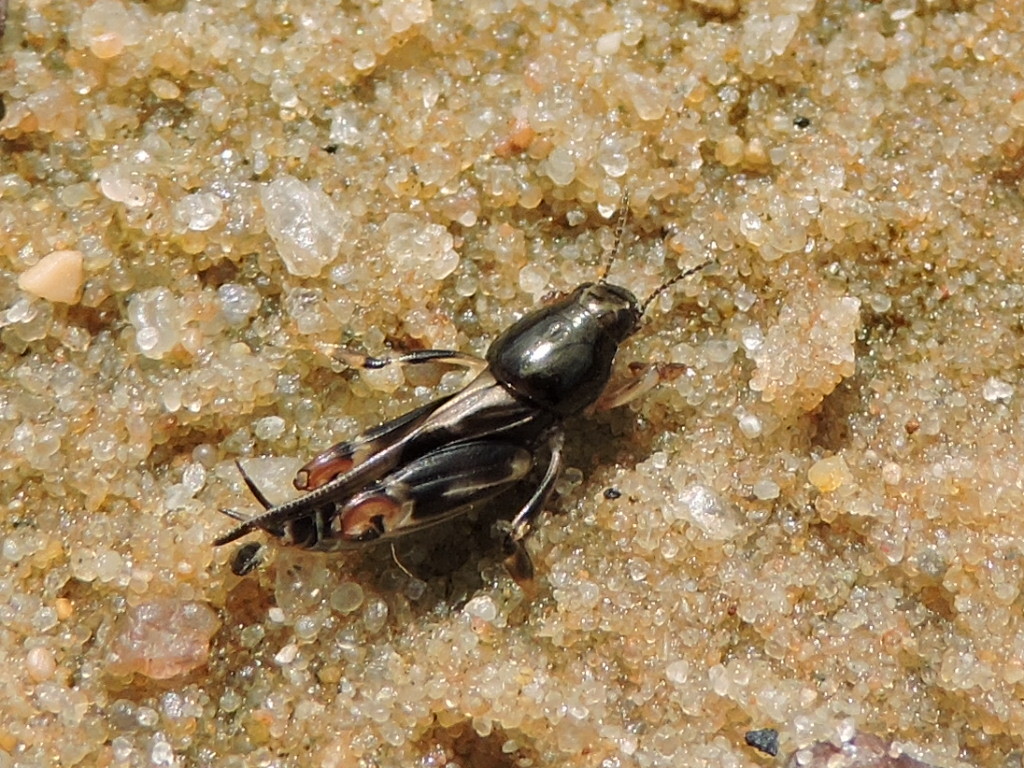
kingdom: Animalia
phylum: Arthropoda
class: Insecta
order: Orthoptera
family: Tridactylidae
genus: Neotridactylus
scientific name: Neotridactylus apicialis
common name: Larger pygmy locust
